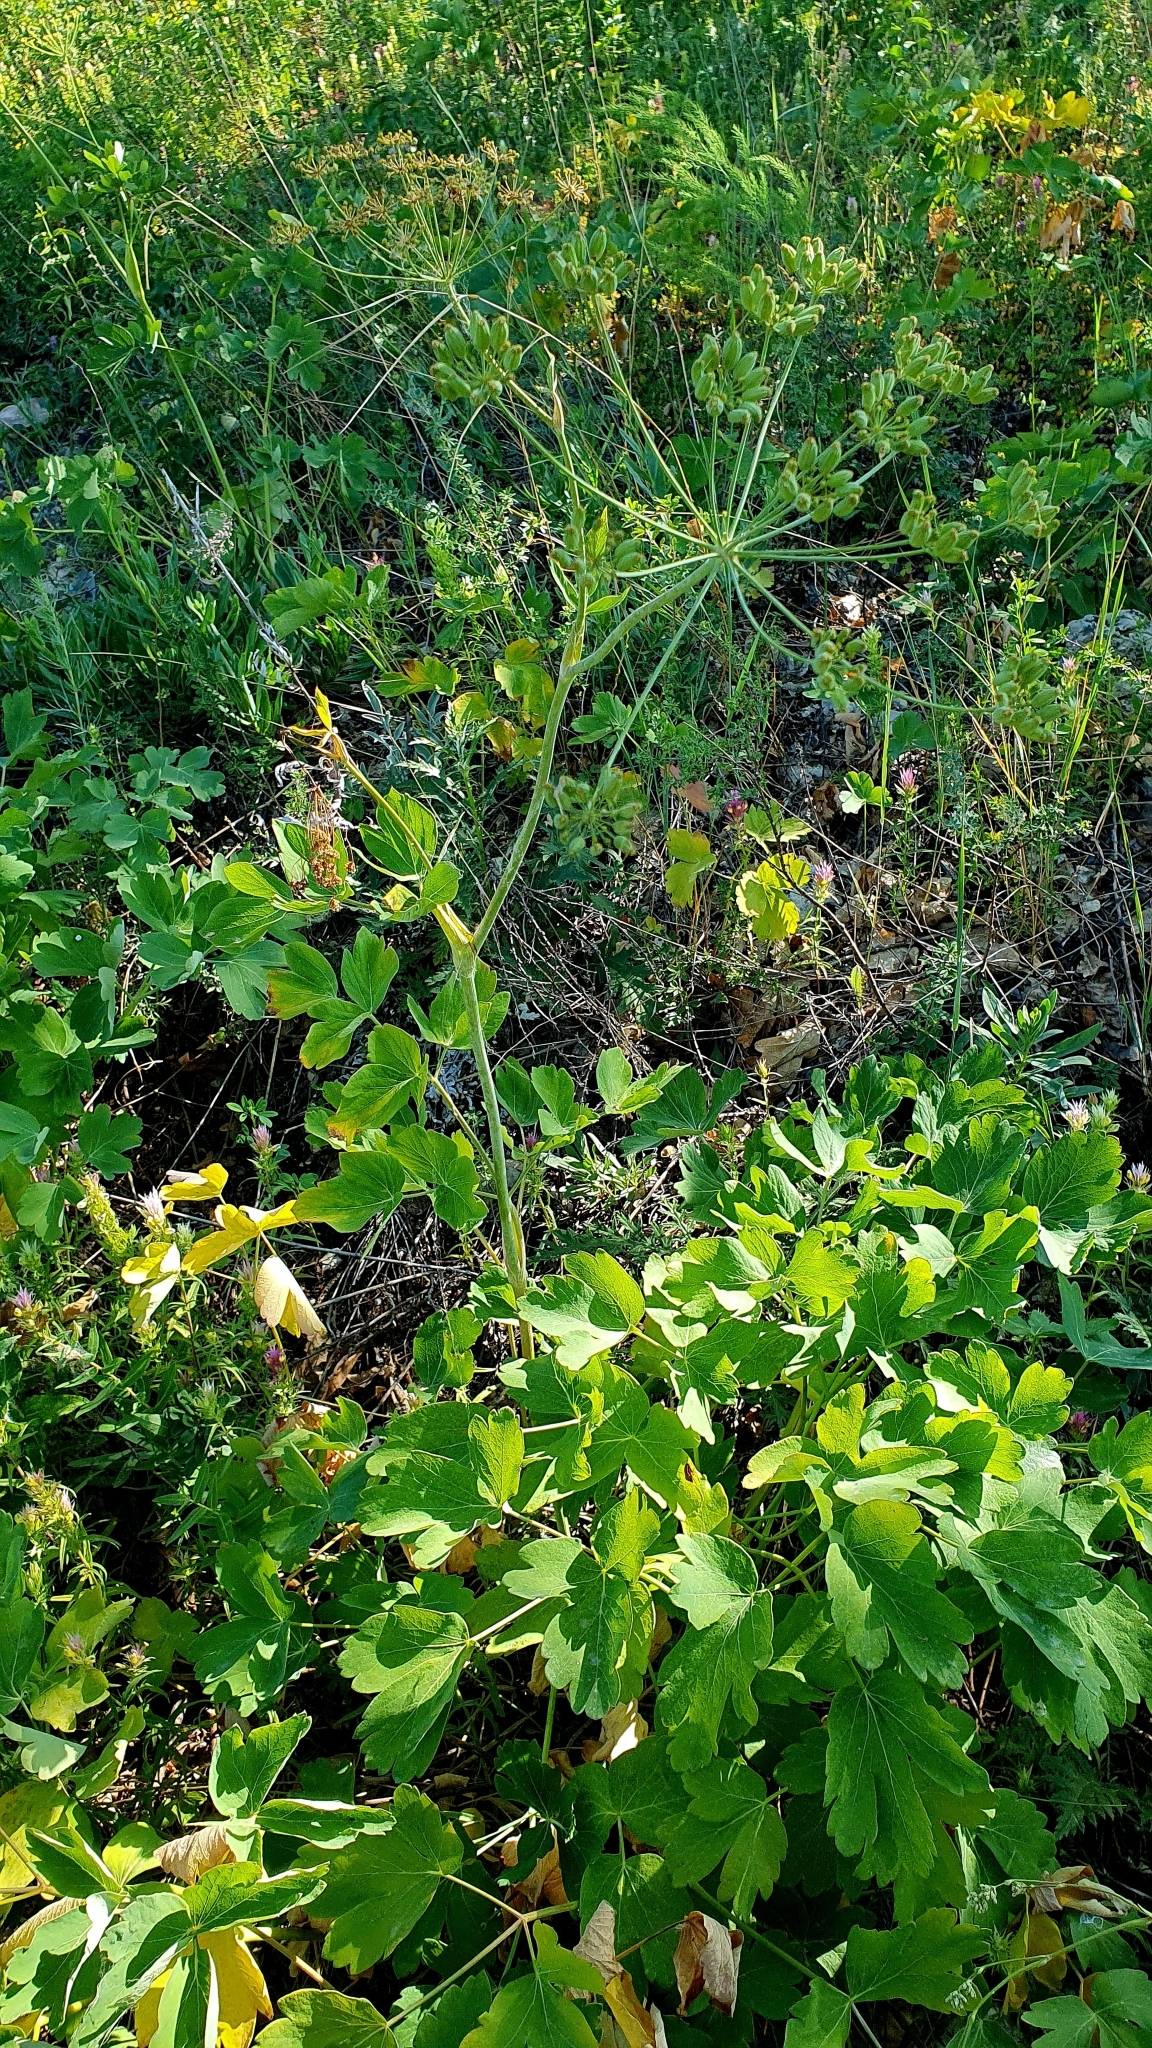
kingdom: Plantae
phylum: Tracheophyta
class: Magnoliopsida
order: Apiales
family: Apiaceae
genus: Laser
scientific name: Laser trilobum
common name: Laser
